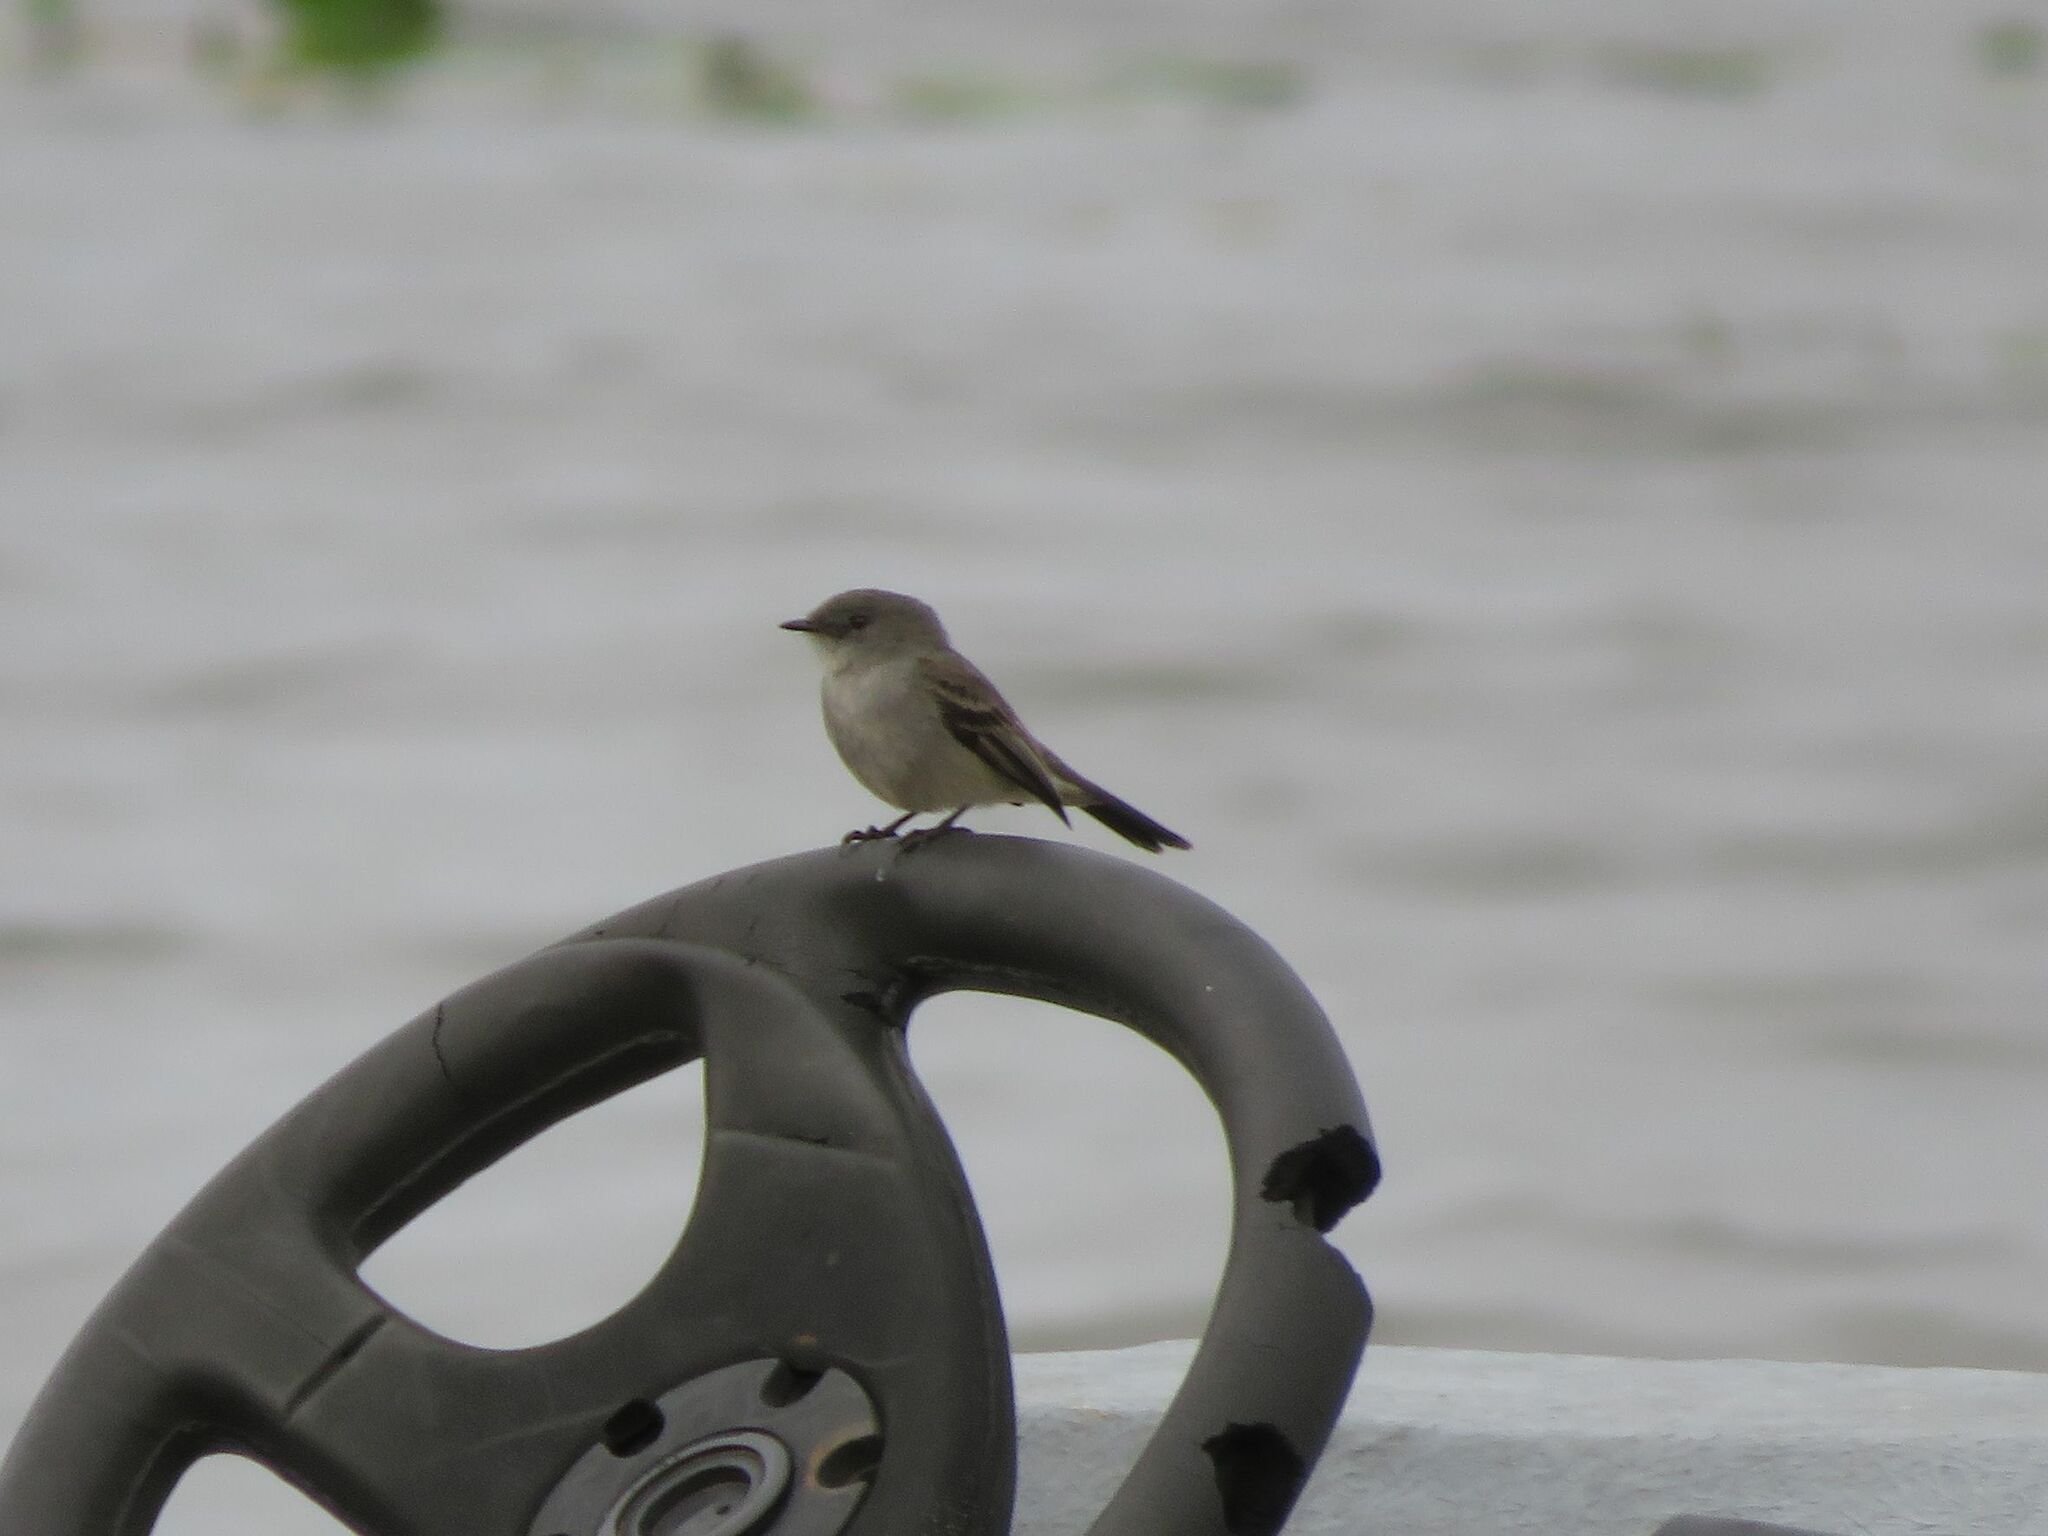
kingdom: Animalia
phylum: Chordata
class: Aves
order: Passeriformes
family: Tyrannidae
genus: Serpophaga
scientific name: Serpophaga nigricans
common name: Sooty tyrannulet
